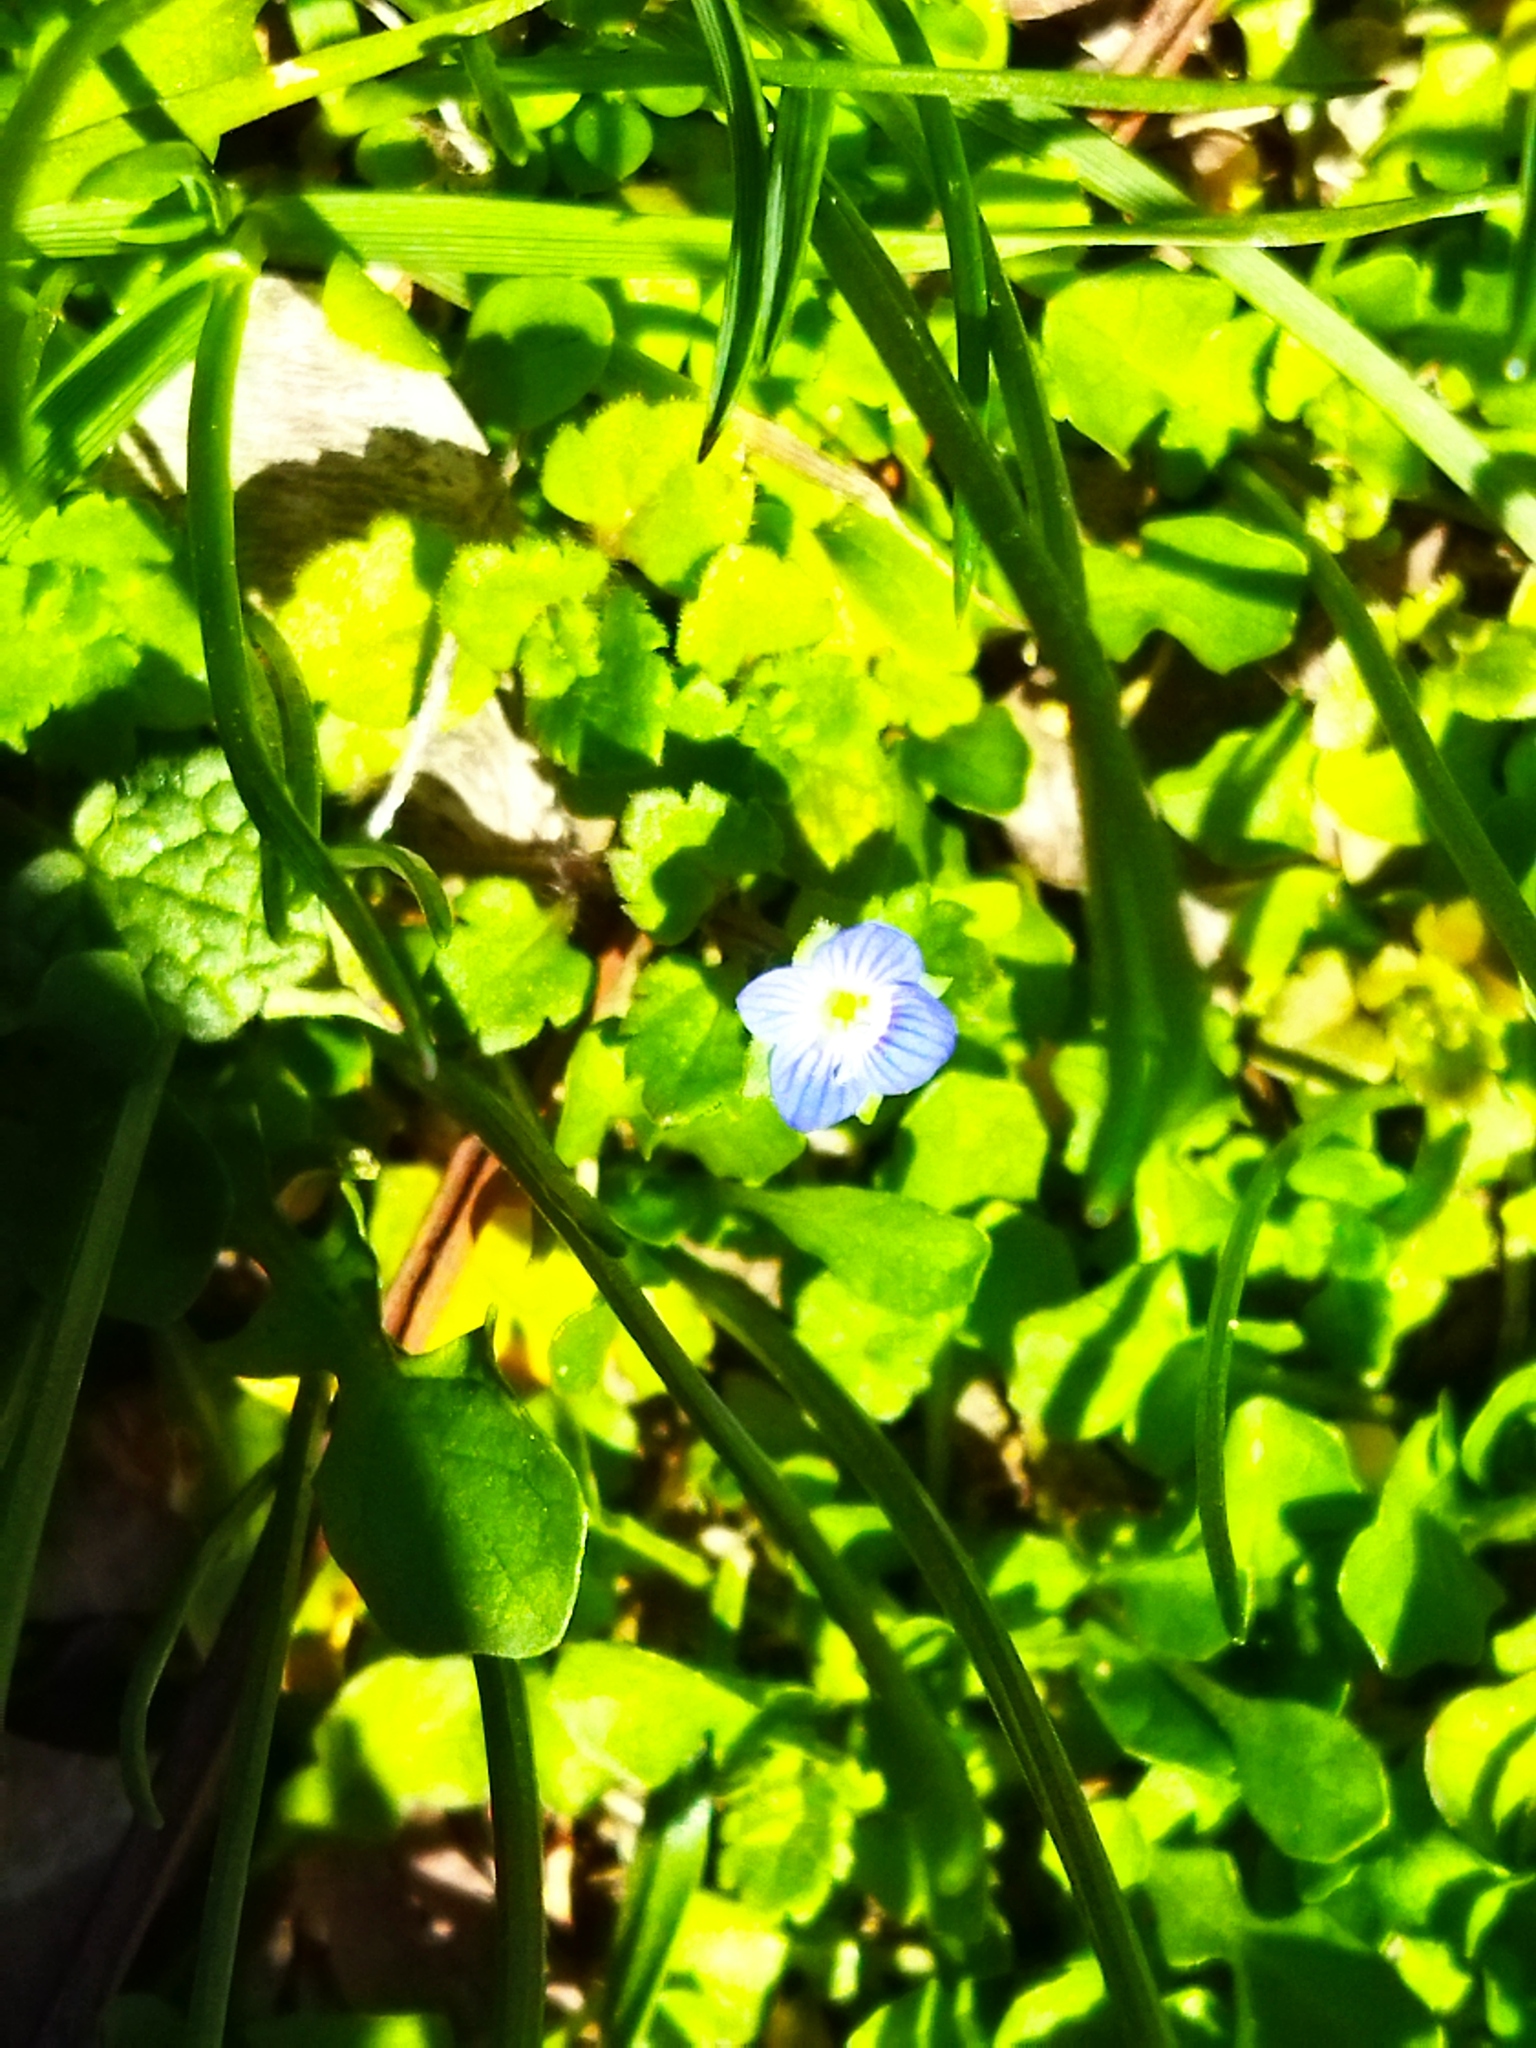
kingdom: Plantae
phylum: Tracheophyta
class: Magnoliopsida
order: Lamiales
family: Plantaginaceae
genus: Veronica
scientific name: Veronica persica
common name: Common field-speedwell
